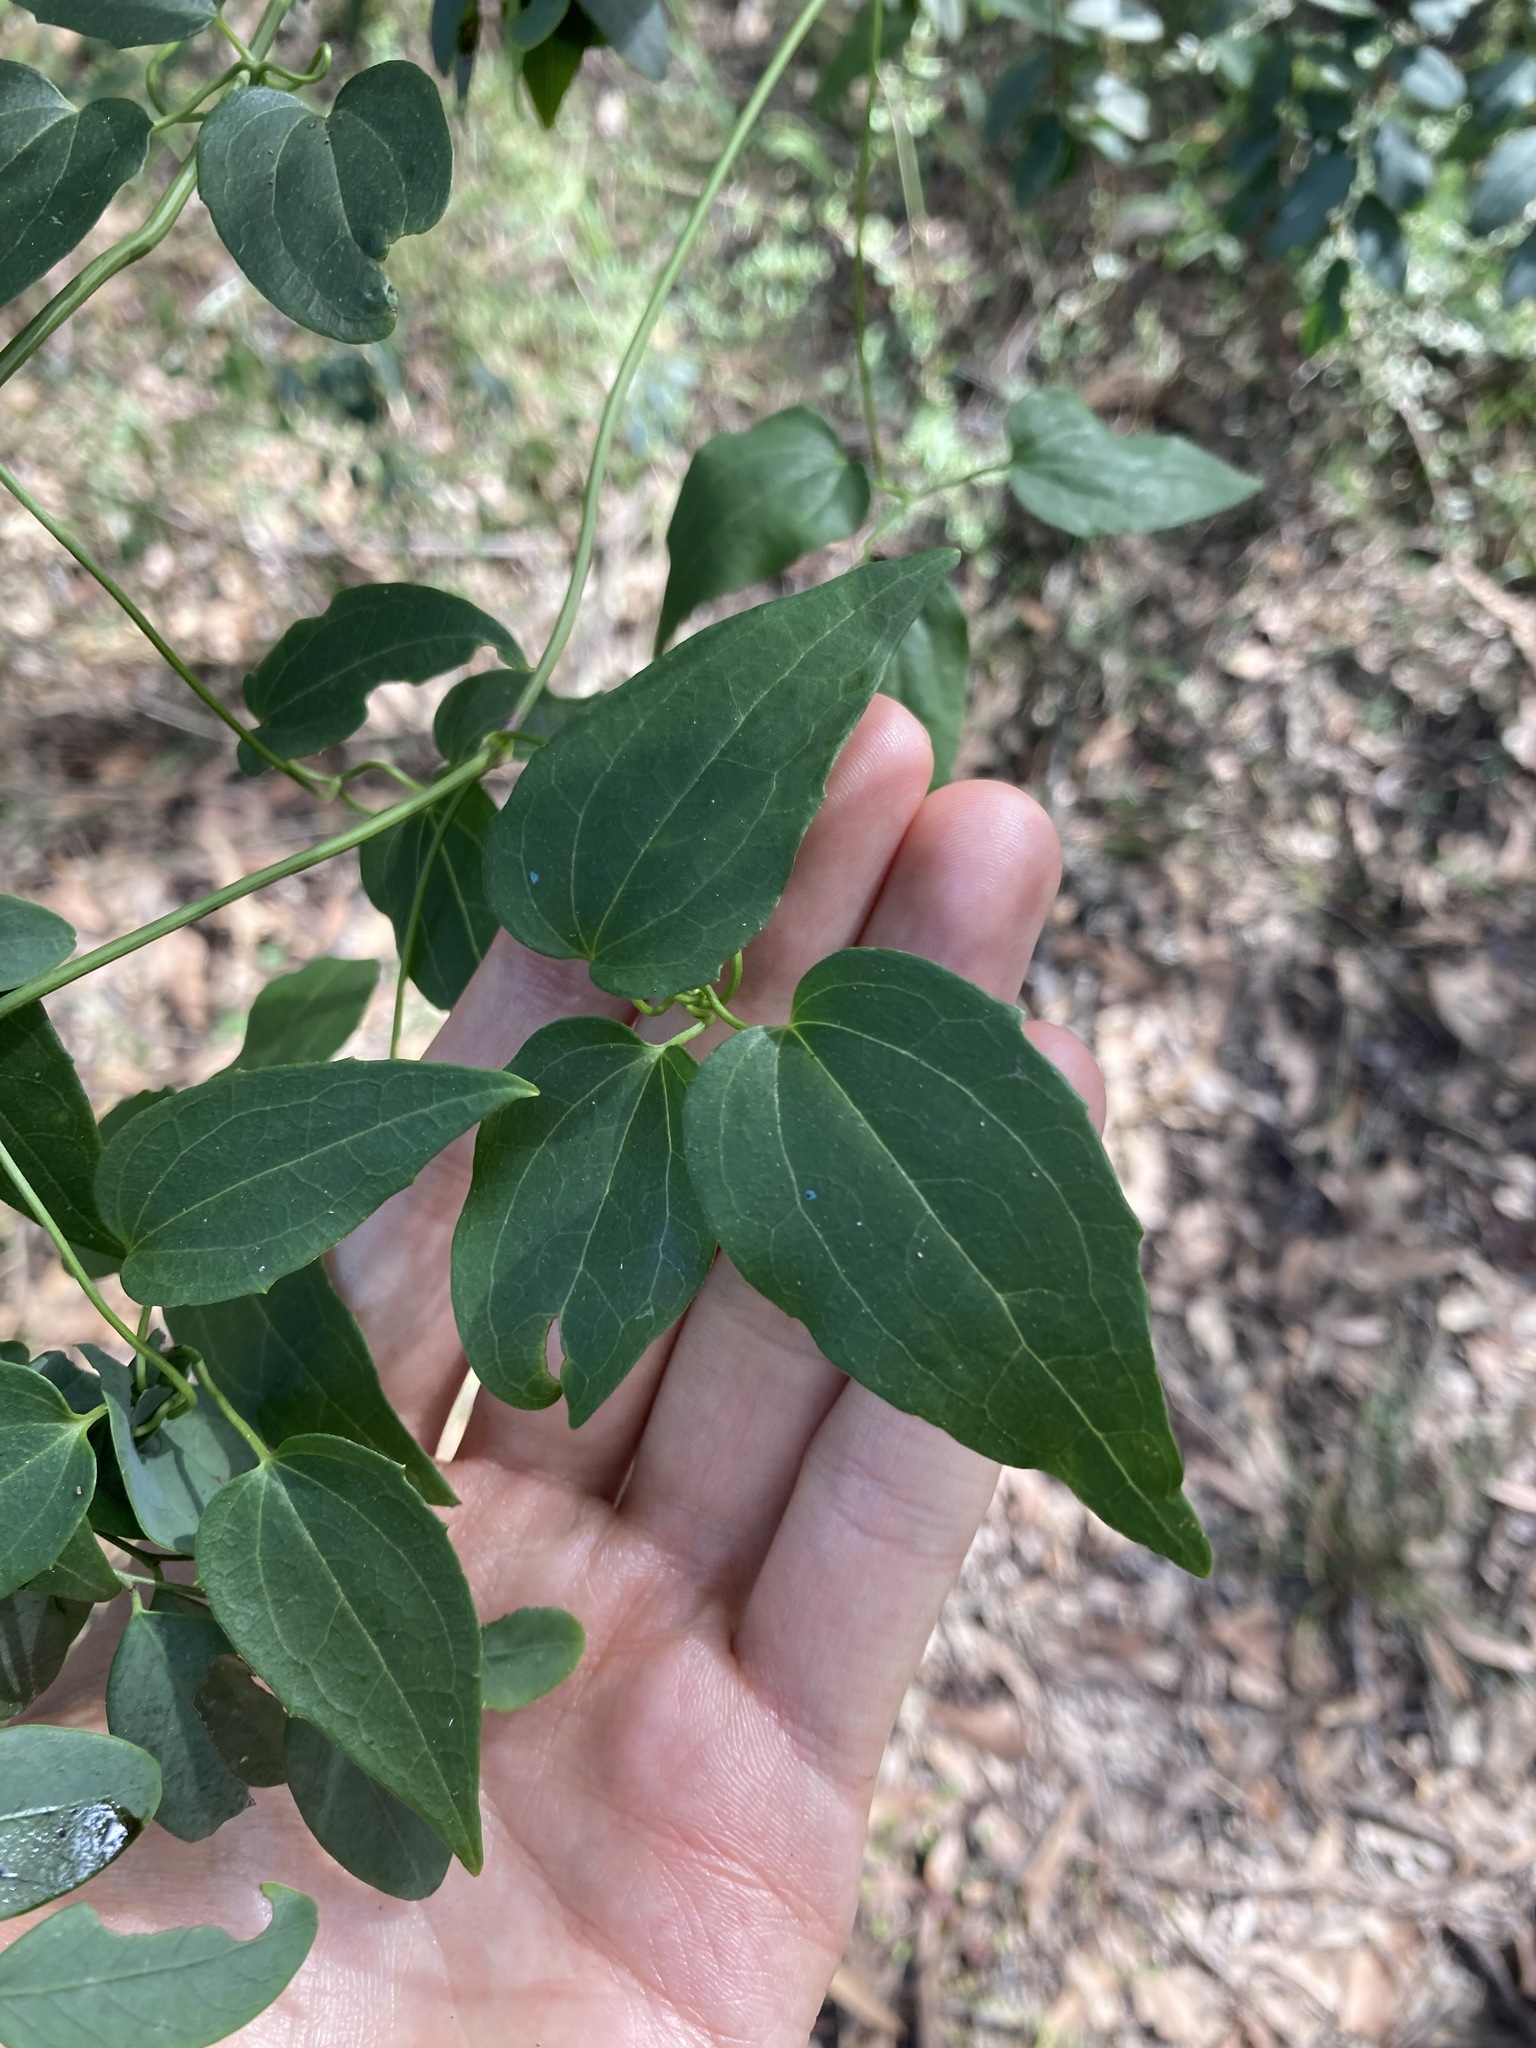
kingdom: Plantae
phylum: Tracheophyta
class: Magnoliopsida
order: Ranunculales
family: Ranunculaceae
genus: Clematis
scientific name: Clematis glycinoides
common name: Forest clematis
